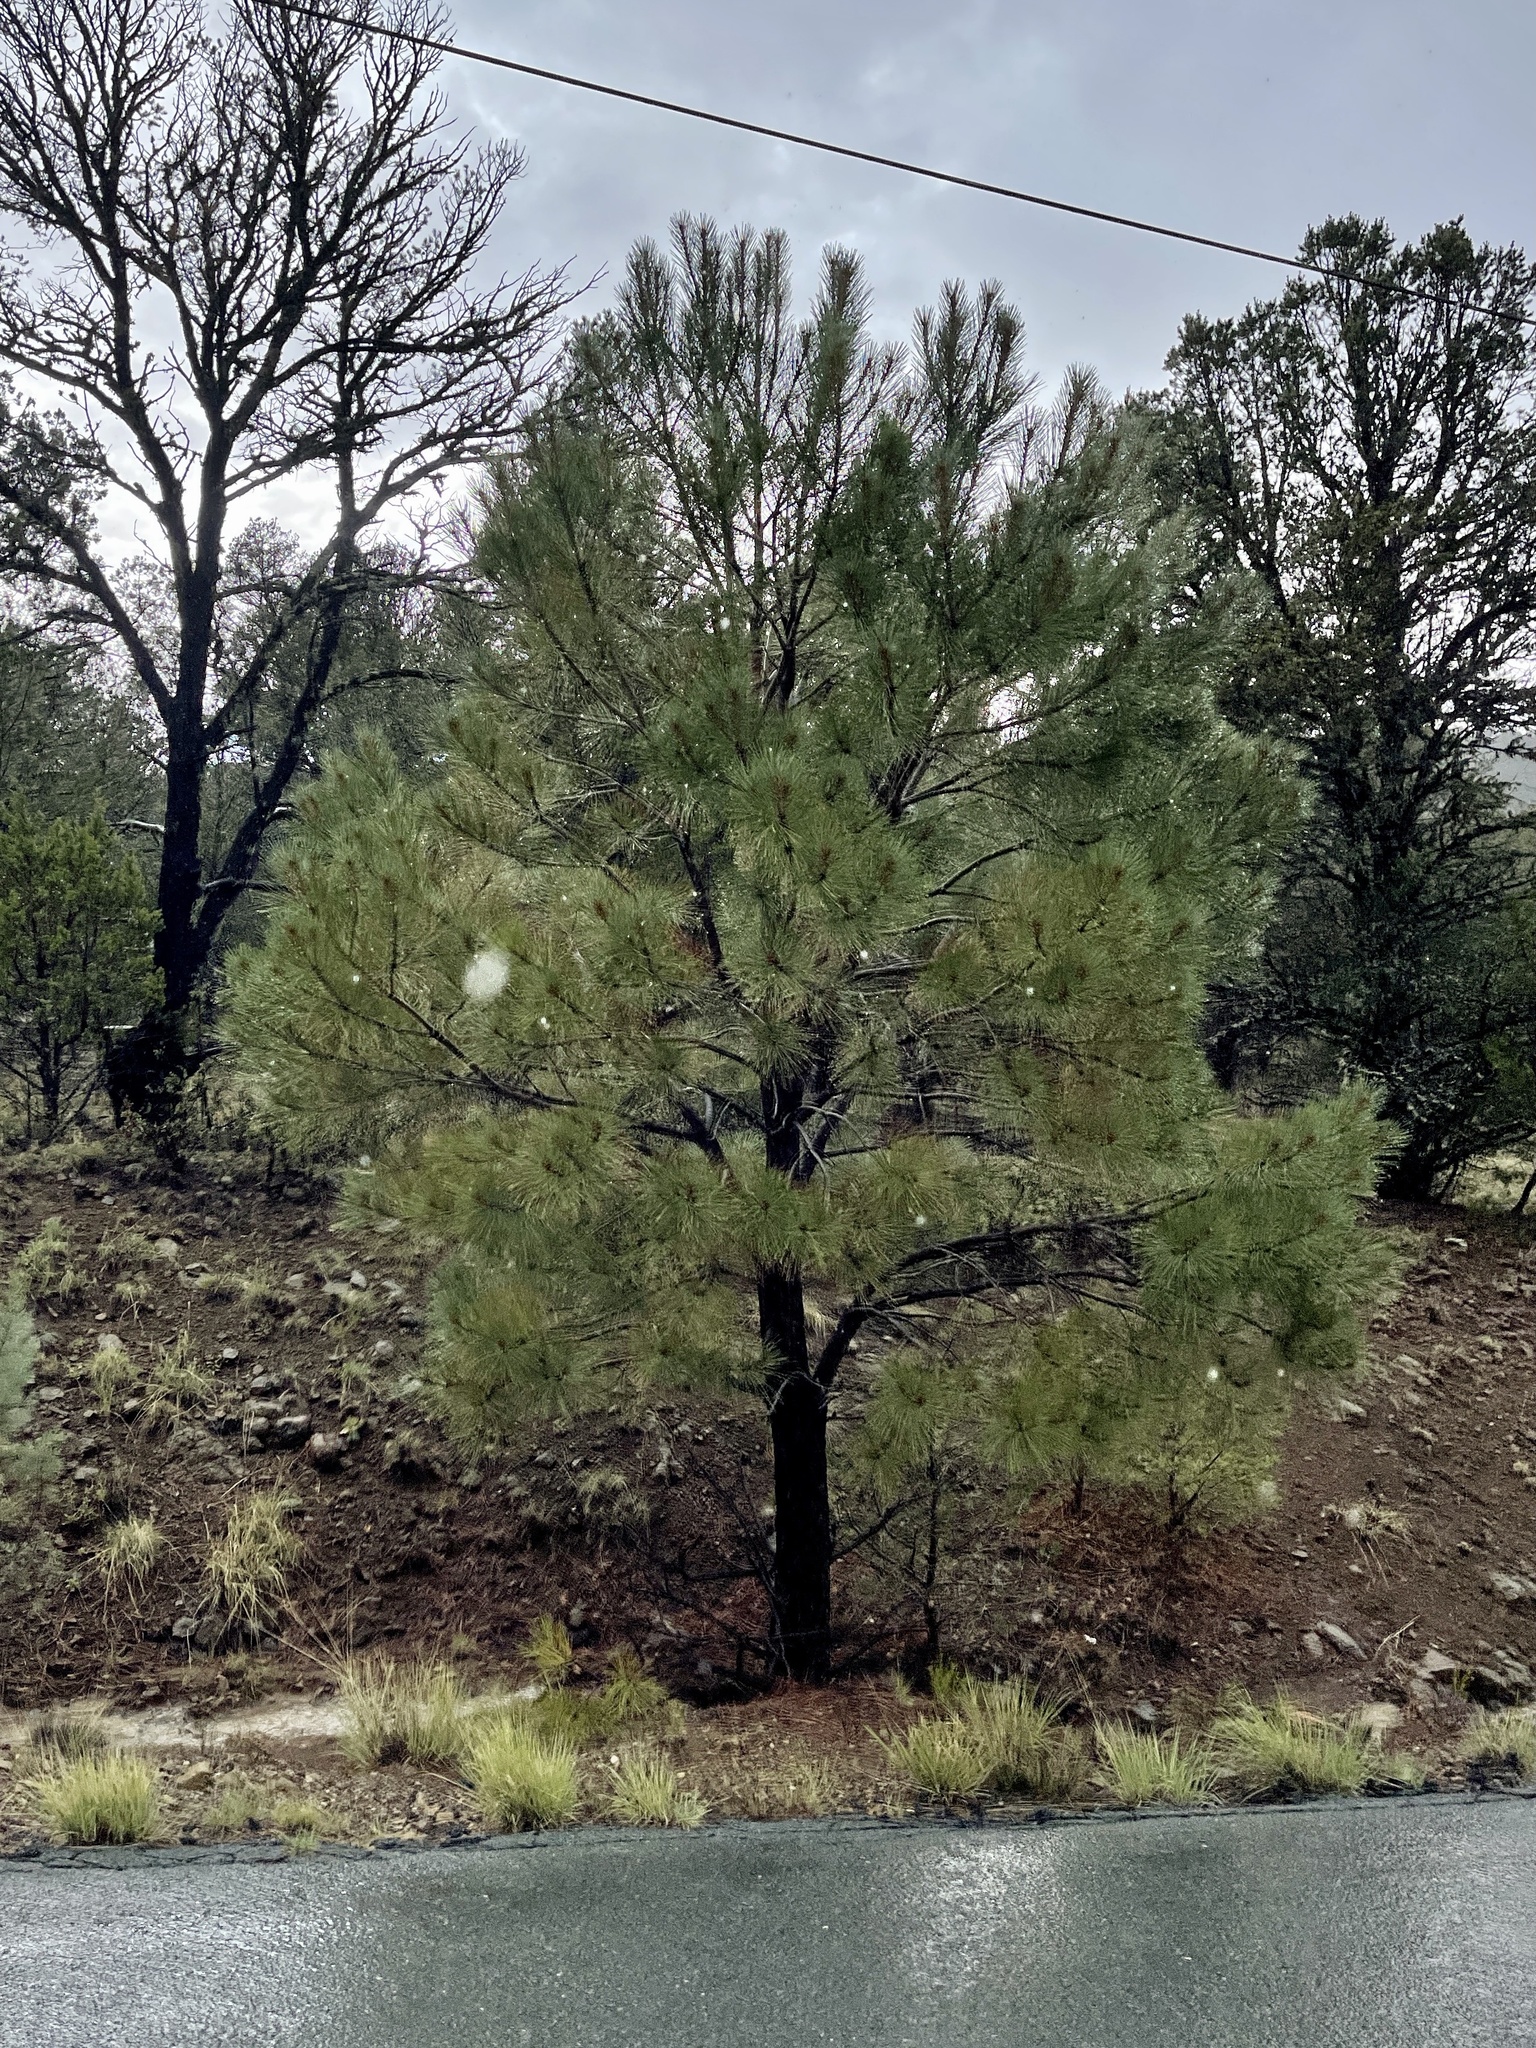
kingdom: Plantae
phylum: Tracheophyta
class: Pinopsida
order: Pinales
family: Pinaceae
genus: Pinus
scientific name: Pinus ponderosa
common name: Western yellow-pine
